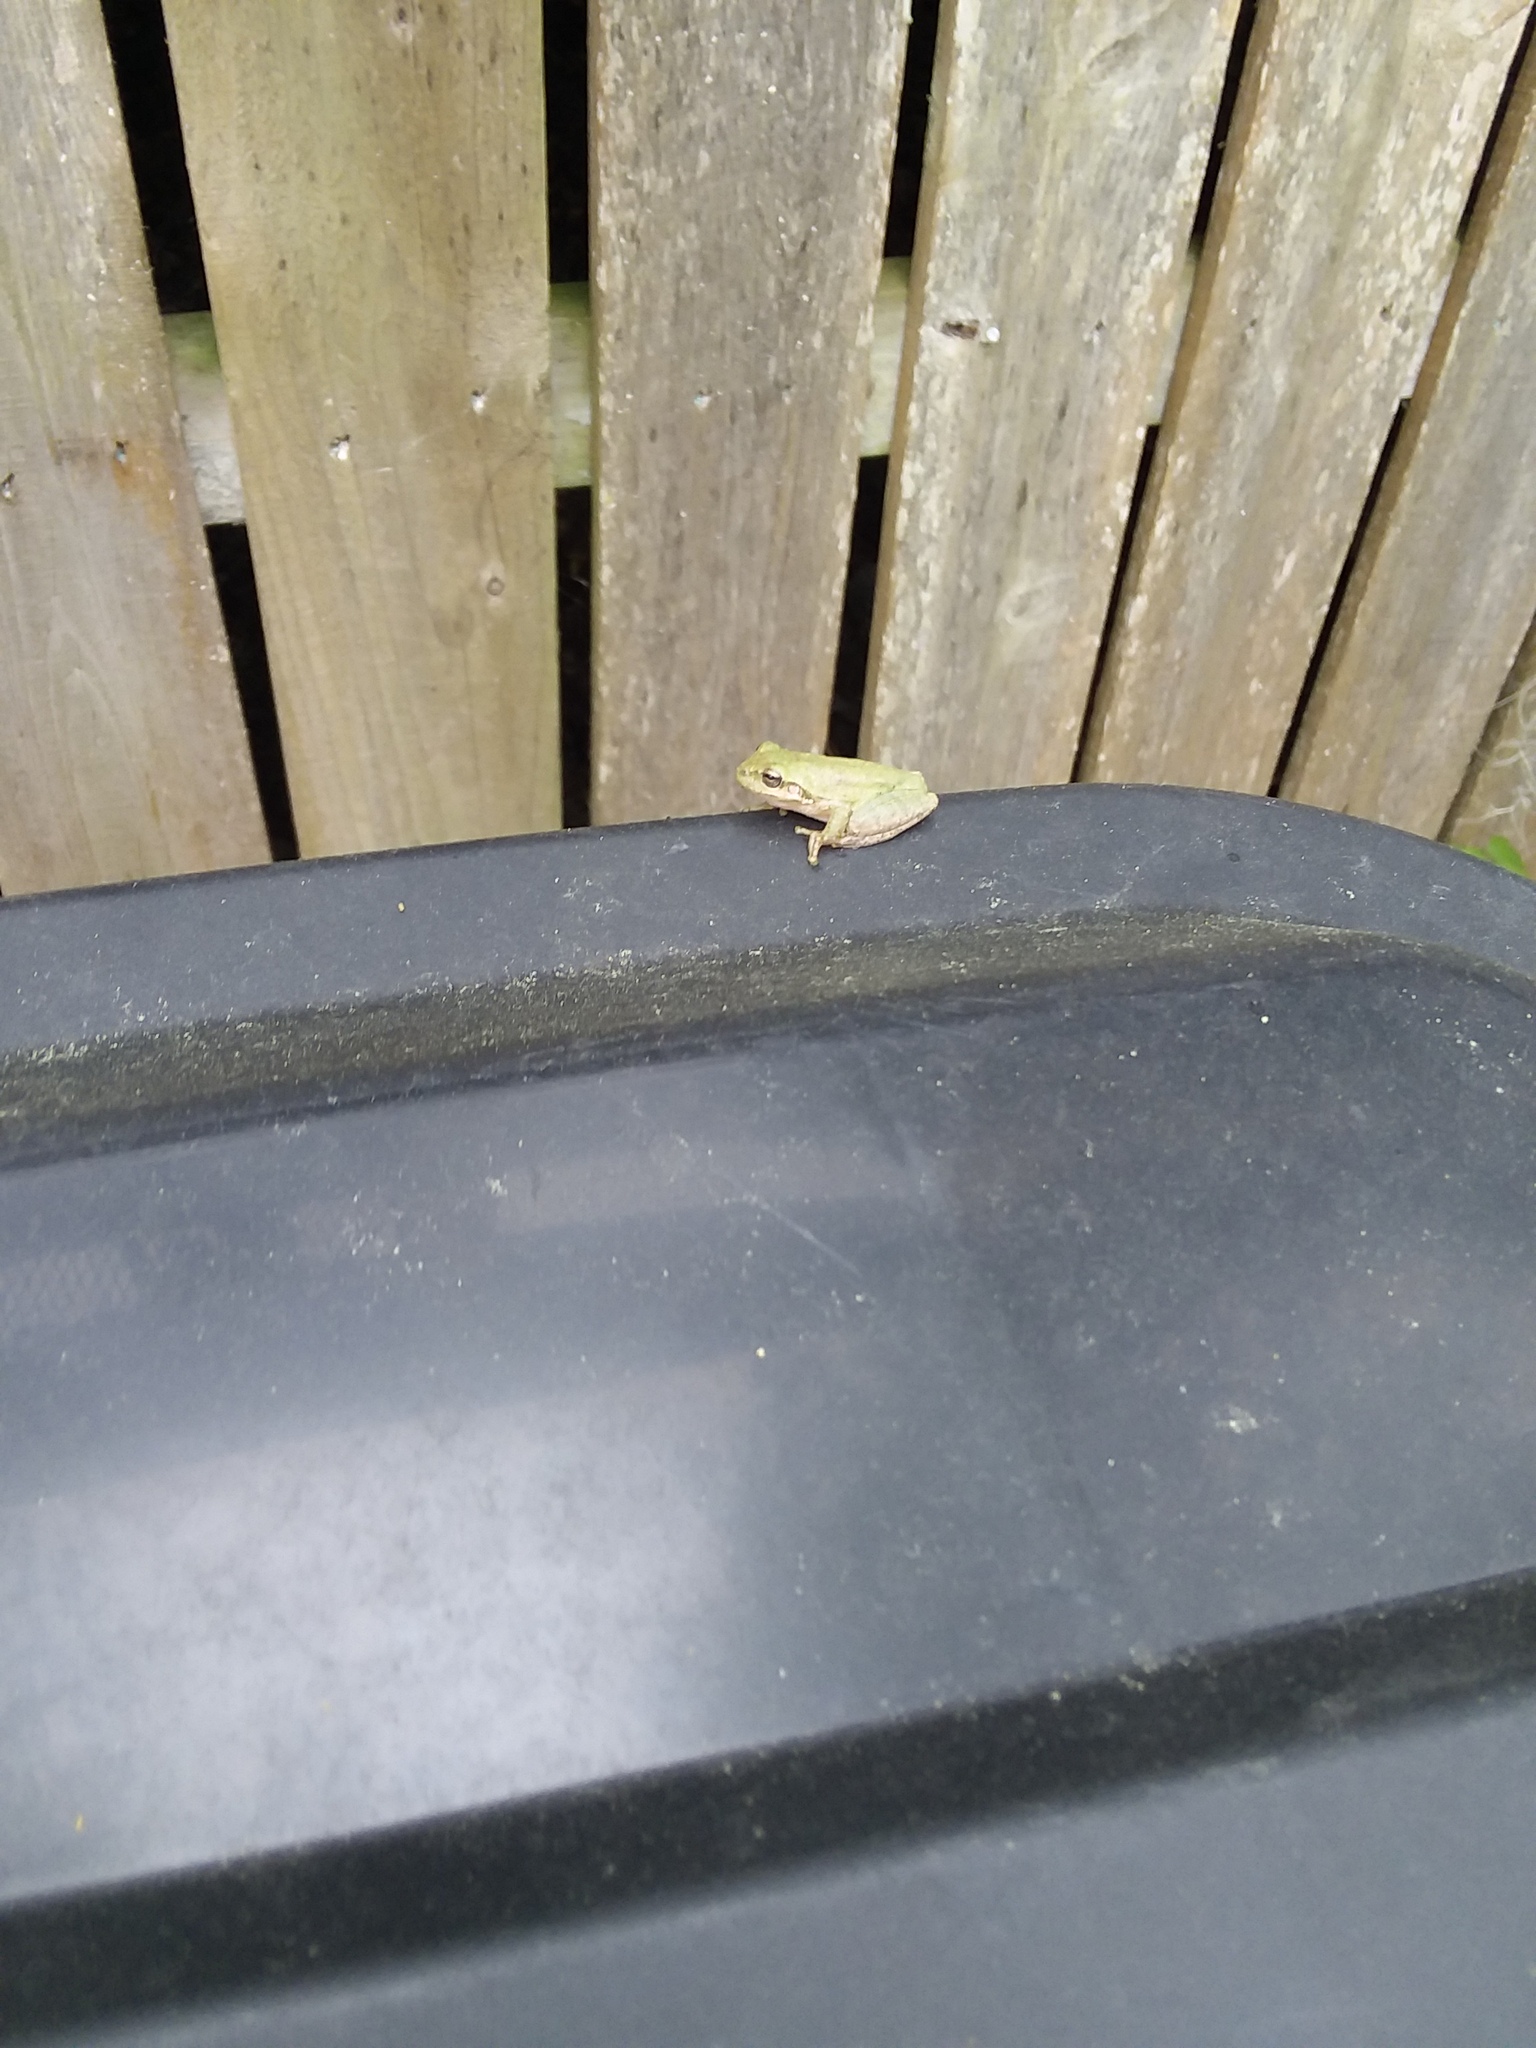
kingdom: Animalia
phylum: Chordata
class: Amphibia
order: Anura
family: Hylidae
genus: Dryophytes
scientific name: Dryophytes squirellus
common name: Squirrel treefrog
